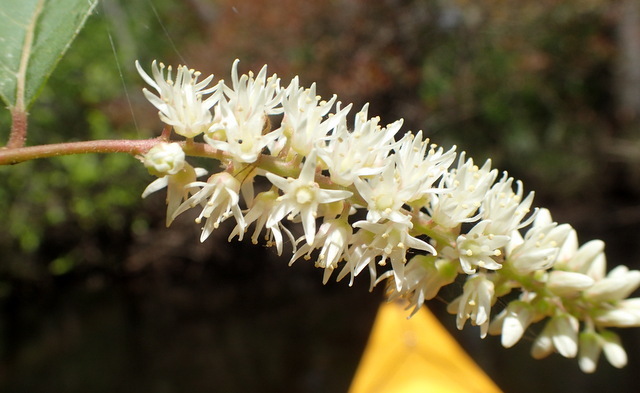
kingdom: Plantae
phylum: Tracheophyta
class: Magnoliopsida
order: Saxifragales
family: Iteaceae
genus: Itea
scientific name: Itea virginica
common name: Sweetspire
